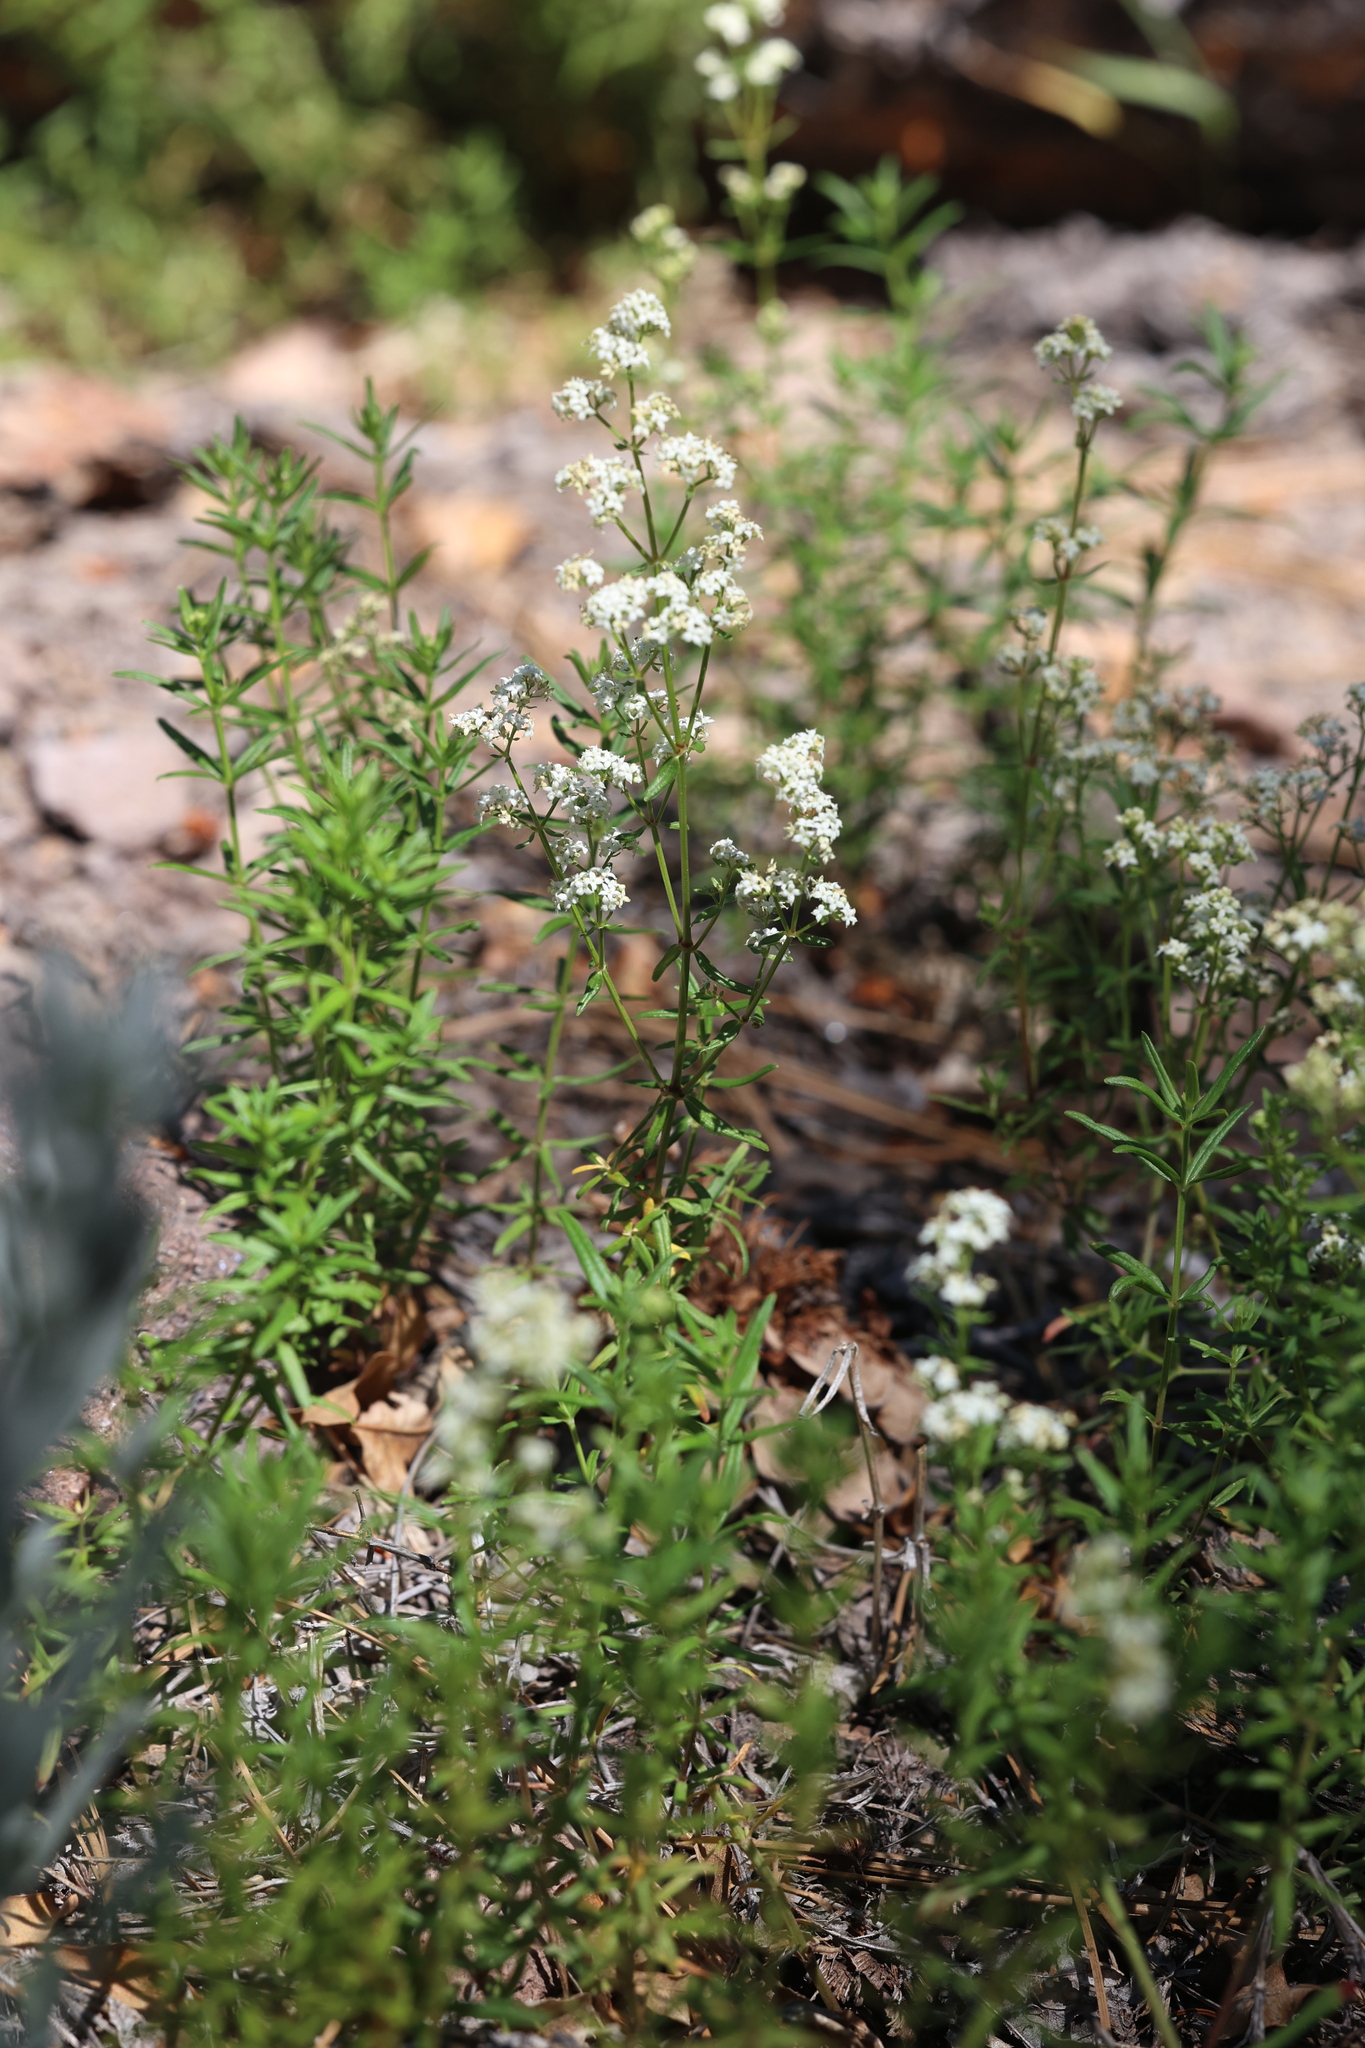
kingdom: Plantae
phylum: Tracheophyta
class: Magnoliopsida
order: Gentianales
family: Rubiaceae
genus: Galium
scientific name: Galium boreale
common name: Northern bedstraw
